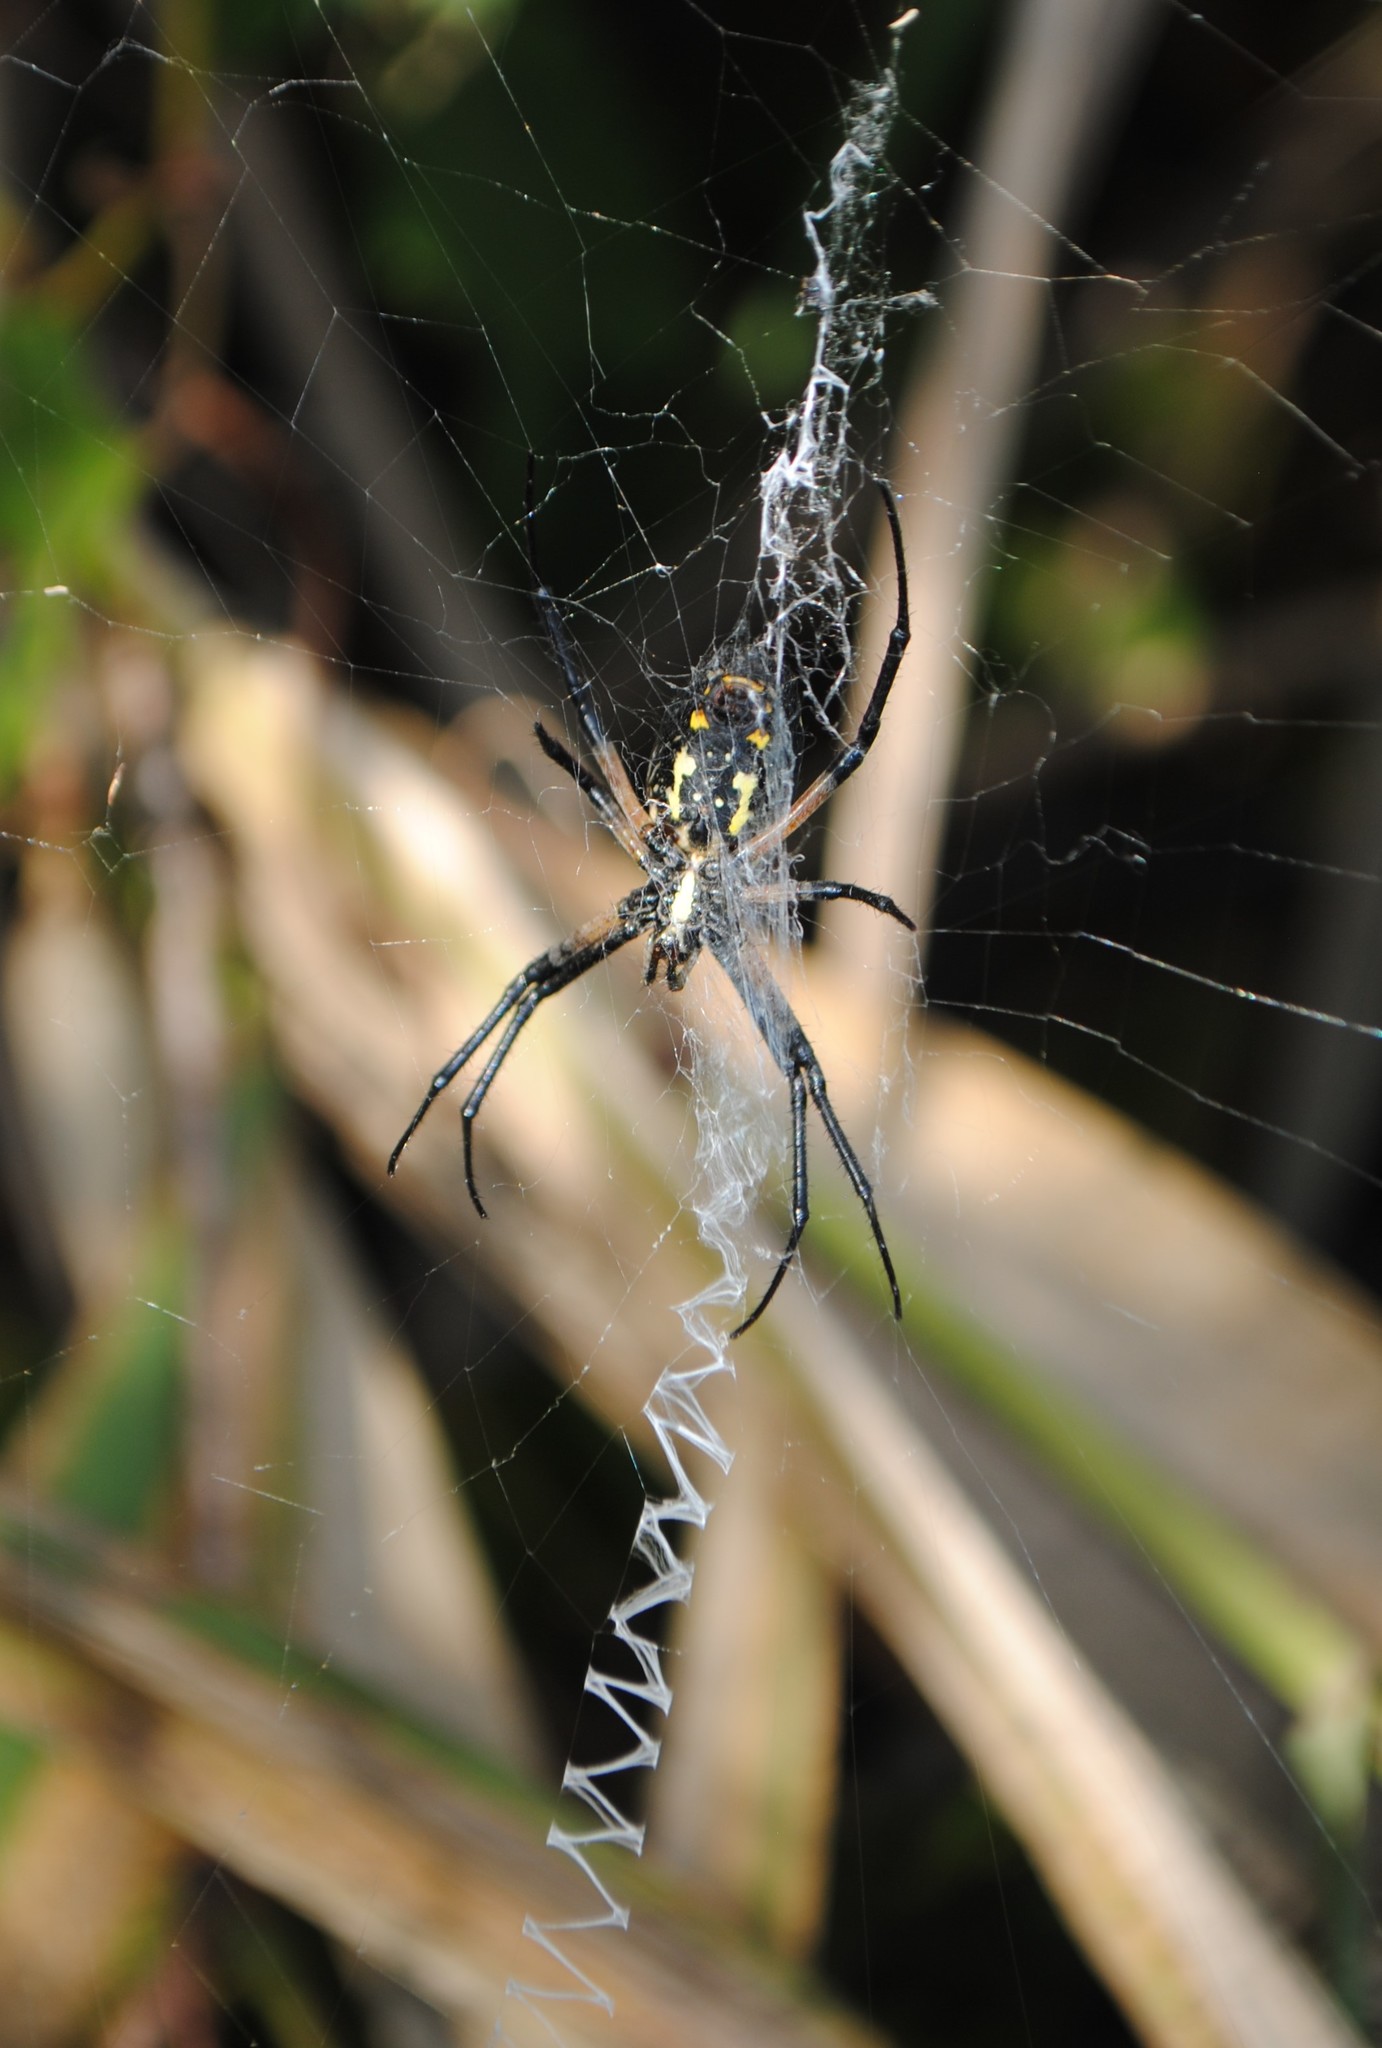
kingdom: Animalia
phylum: Arthropoda
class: Arachnida
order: Araneae
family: Araneidae
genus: Argiope
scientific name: Argiope aurantia
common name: Orb weavers
